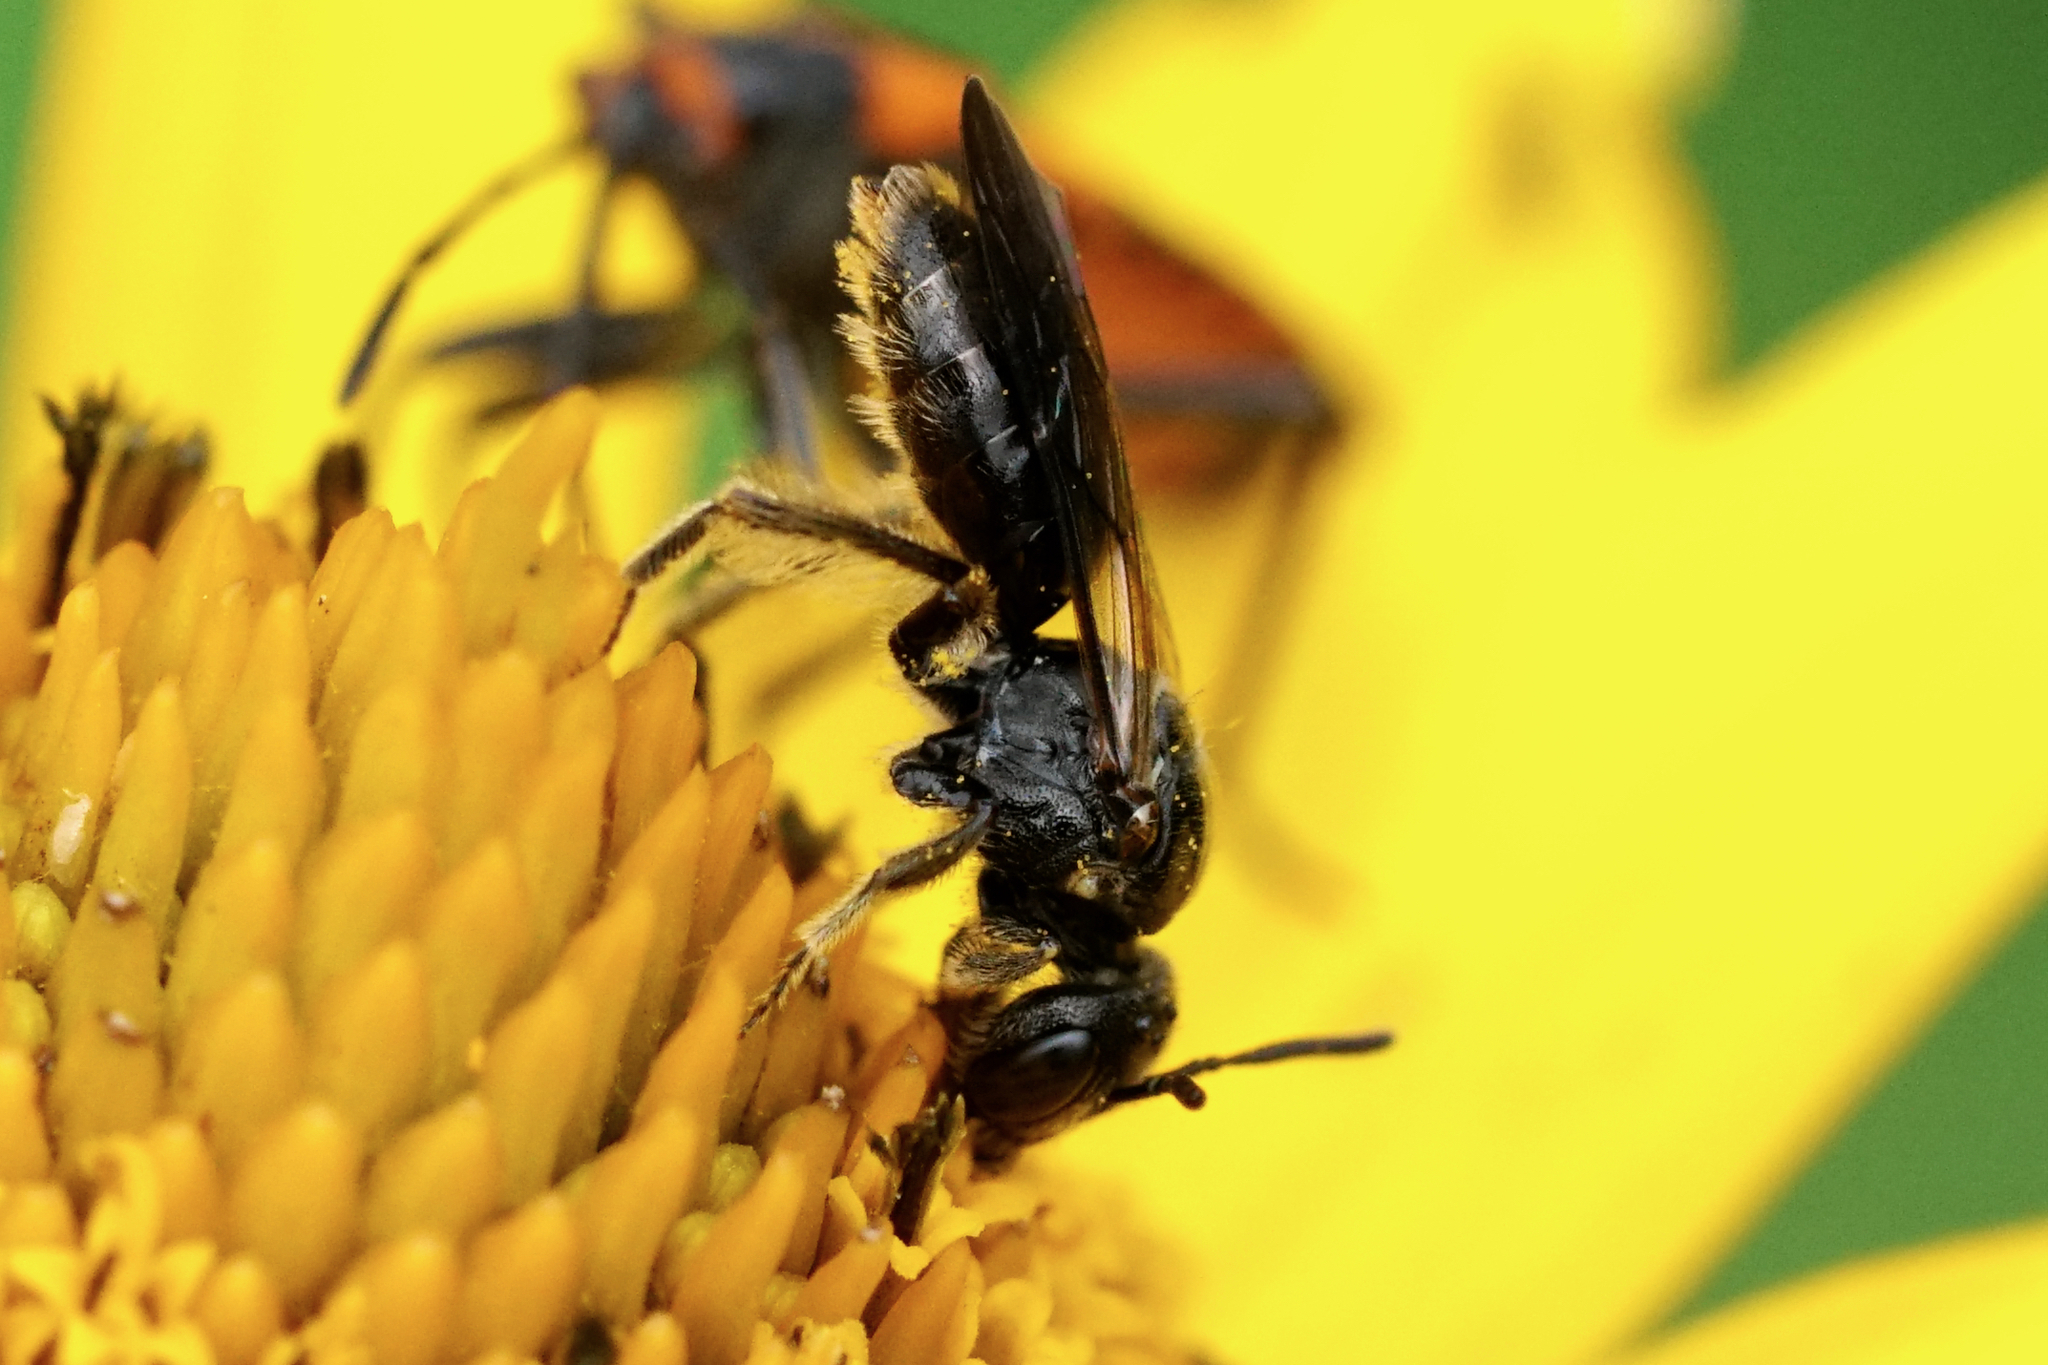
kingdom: Animalia
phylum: Arthropoda
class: Insecta
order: Hymenoptera
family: Andrenidae
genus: Pseudopanurgus
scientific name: Pseudopanurgus labrosus
